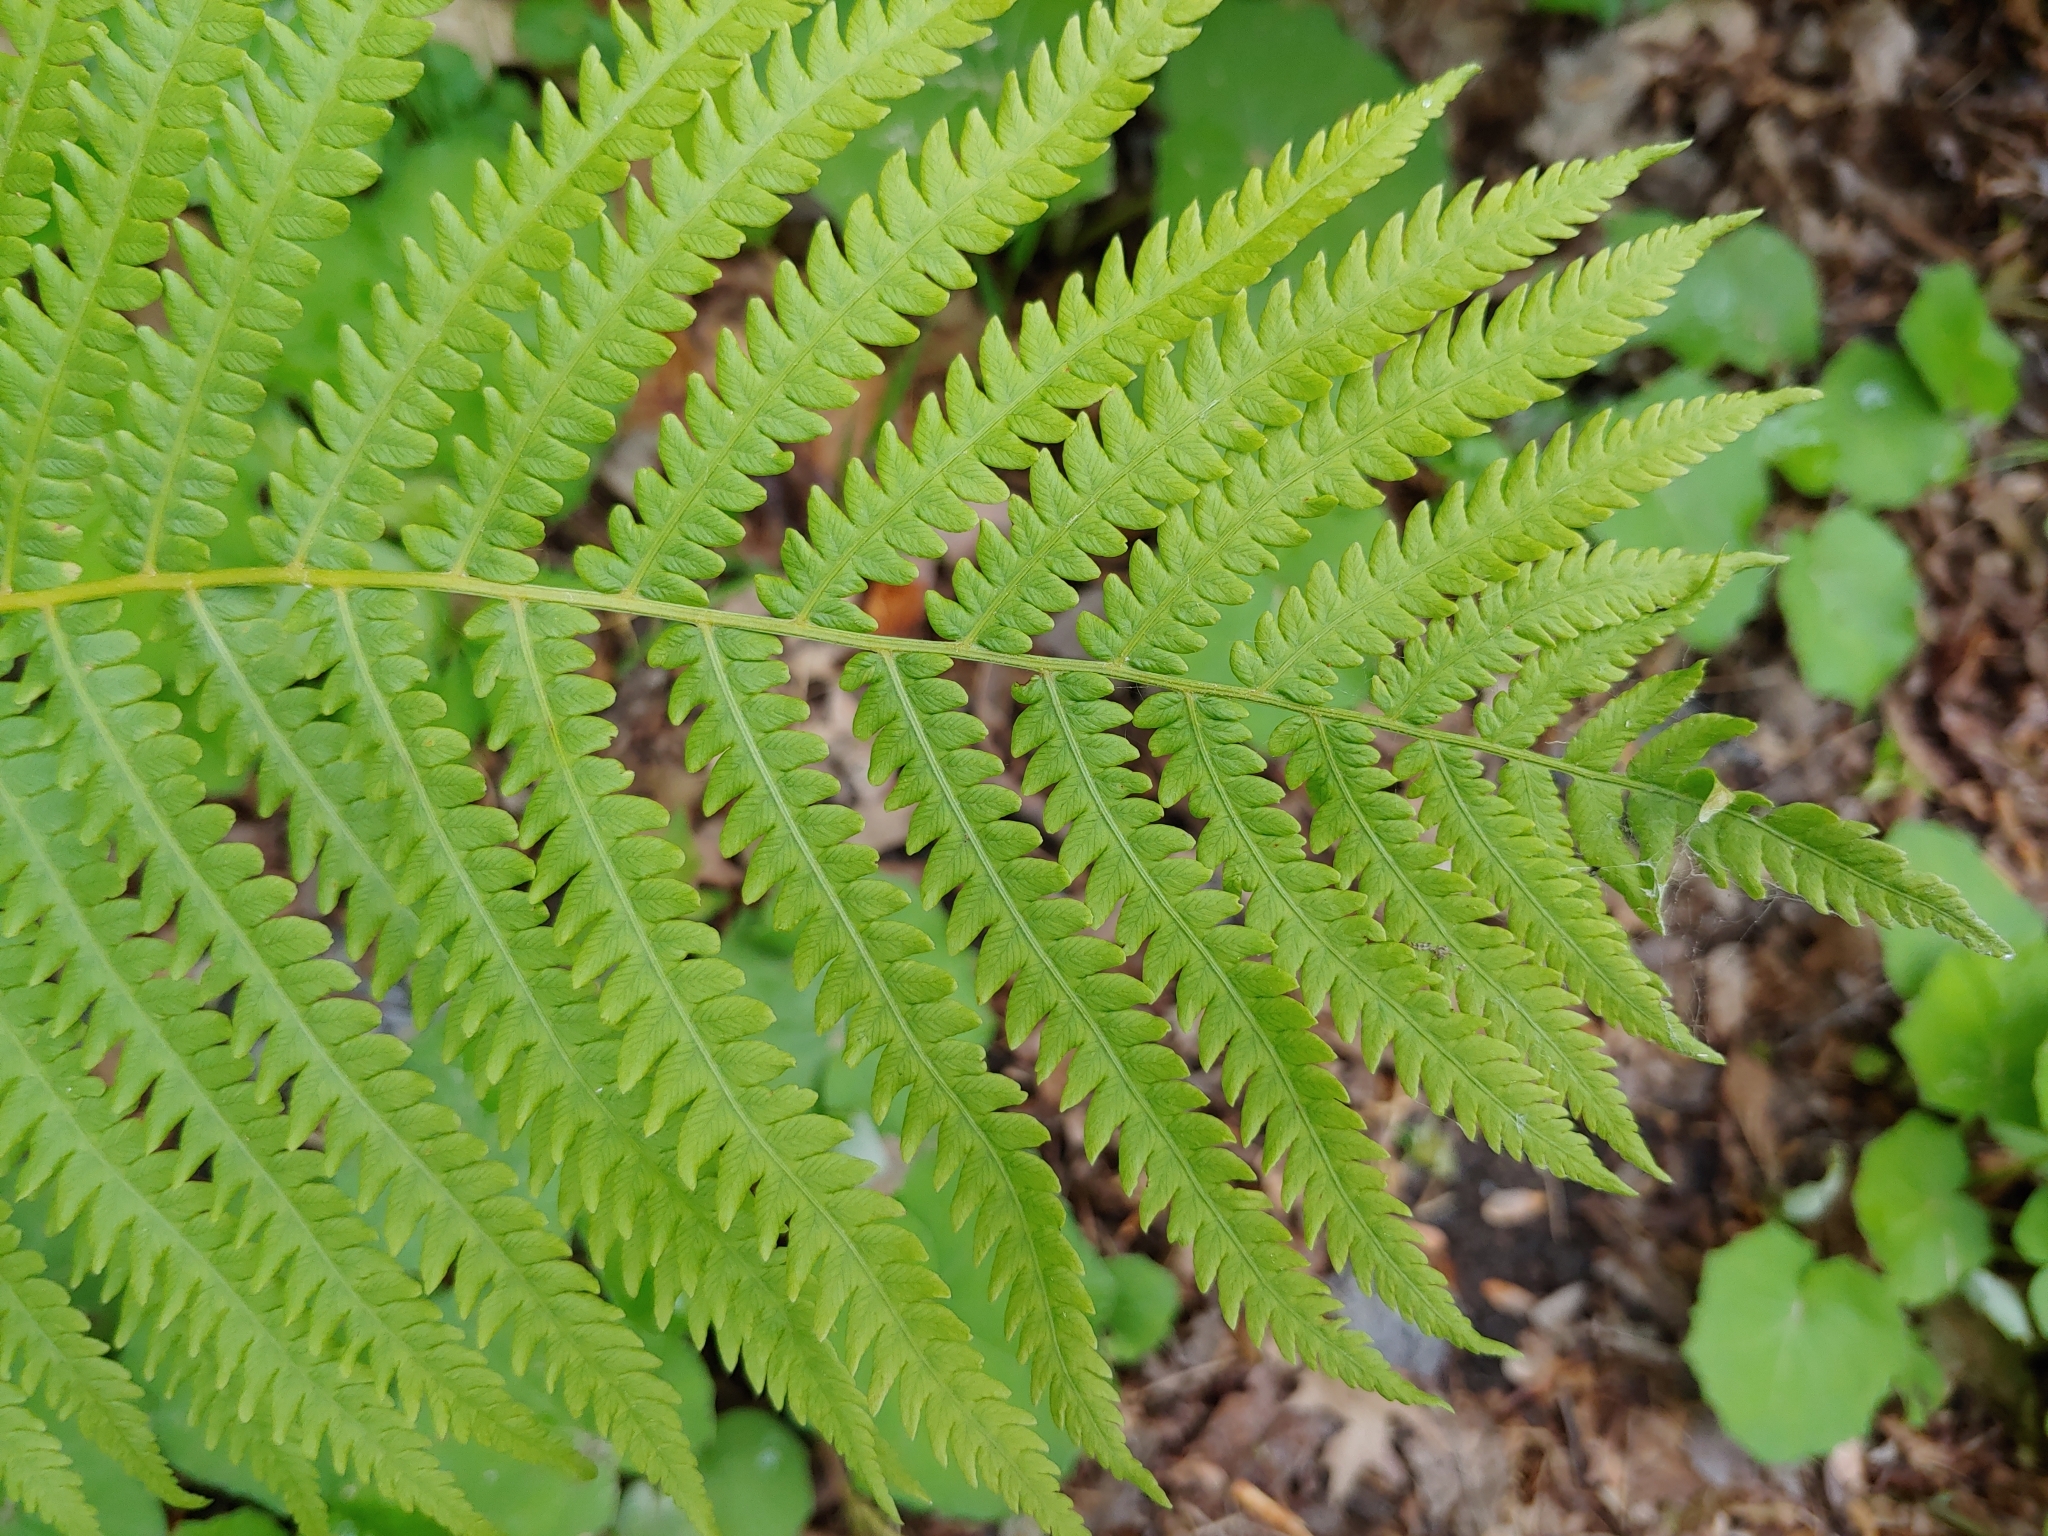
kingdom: Plantae
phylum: Tracheophyta
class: Polypodiopsida
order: Polypodiales
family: Onocleaceae
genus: Matteuccia
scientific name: Matteuccia struthiopteris
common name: Ostrich fern
